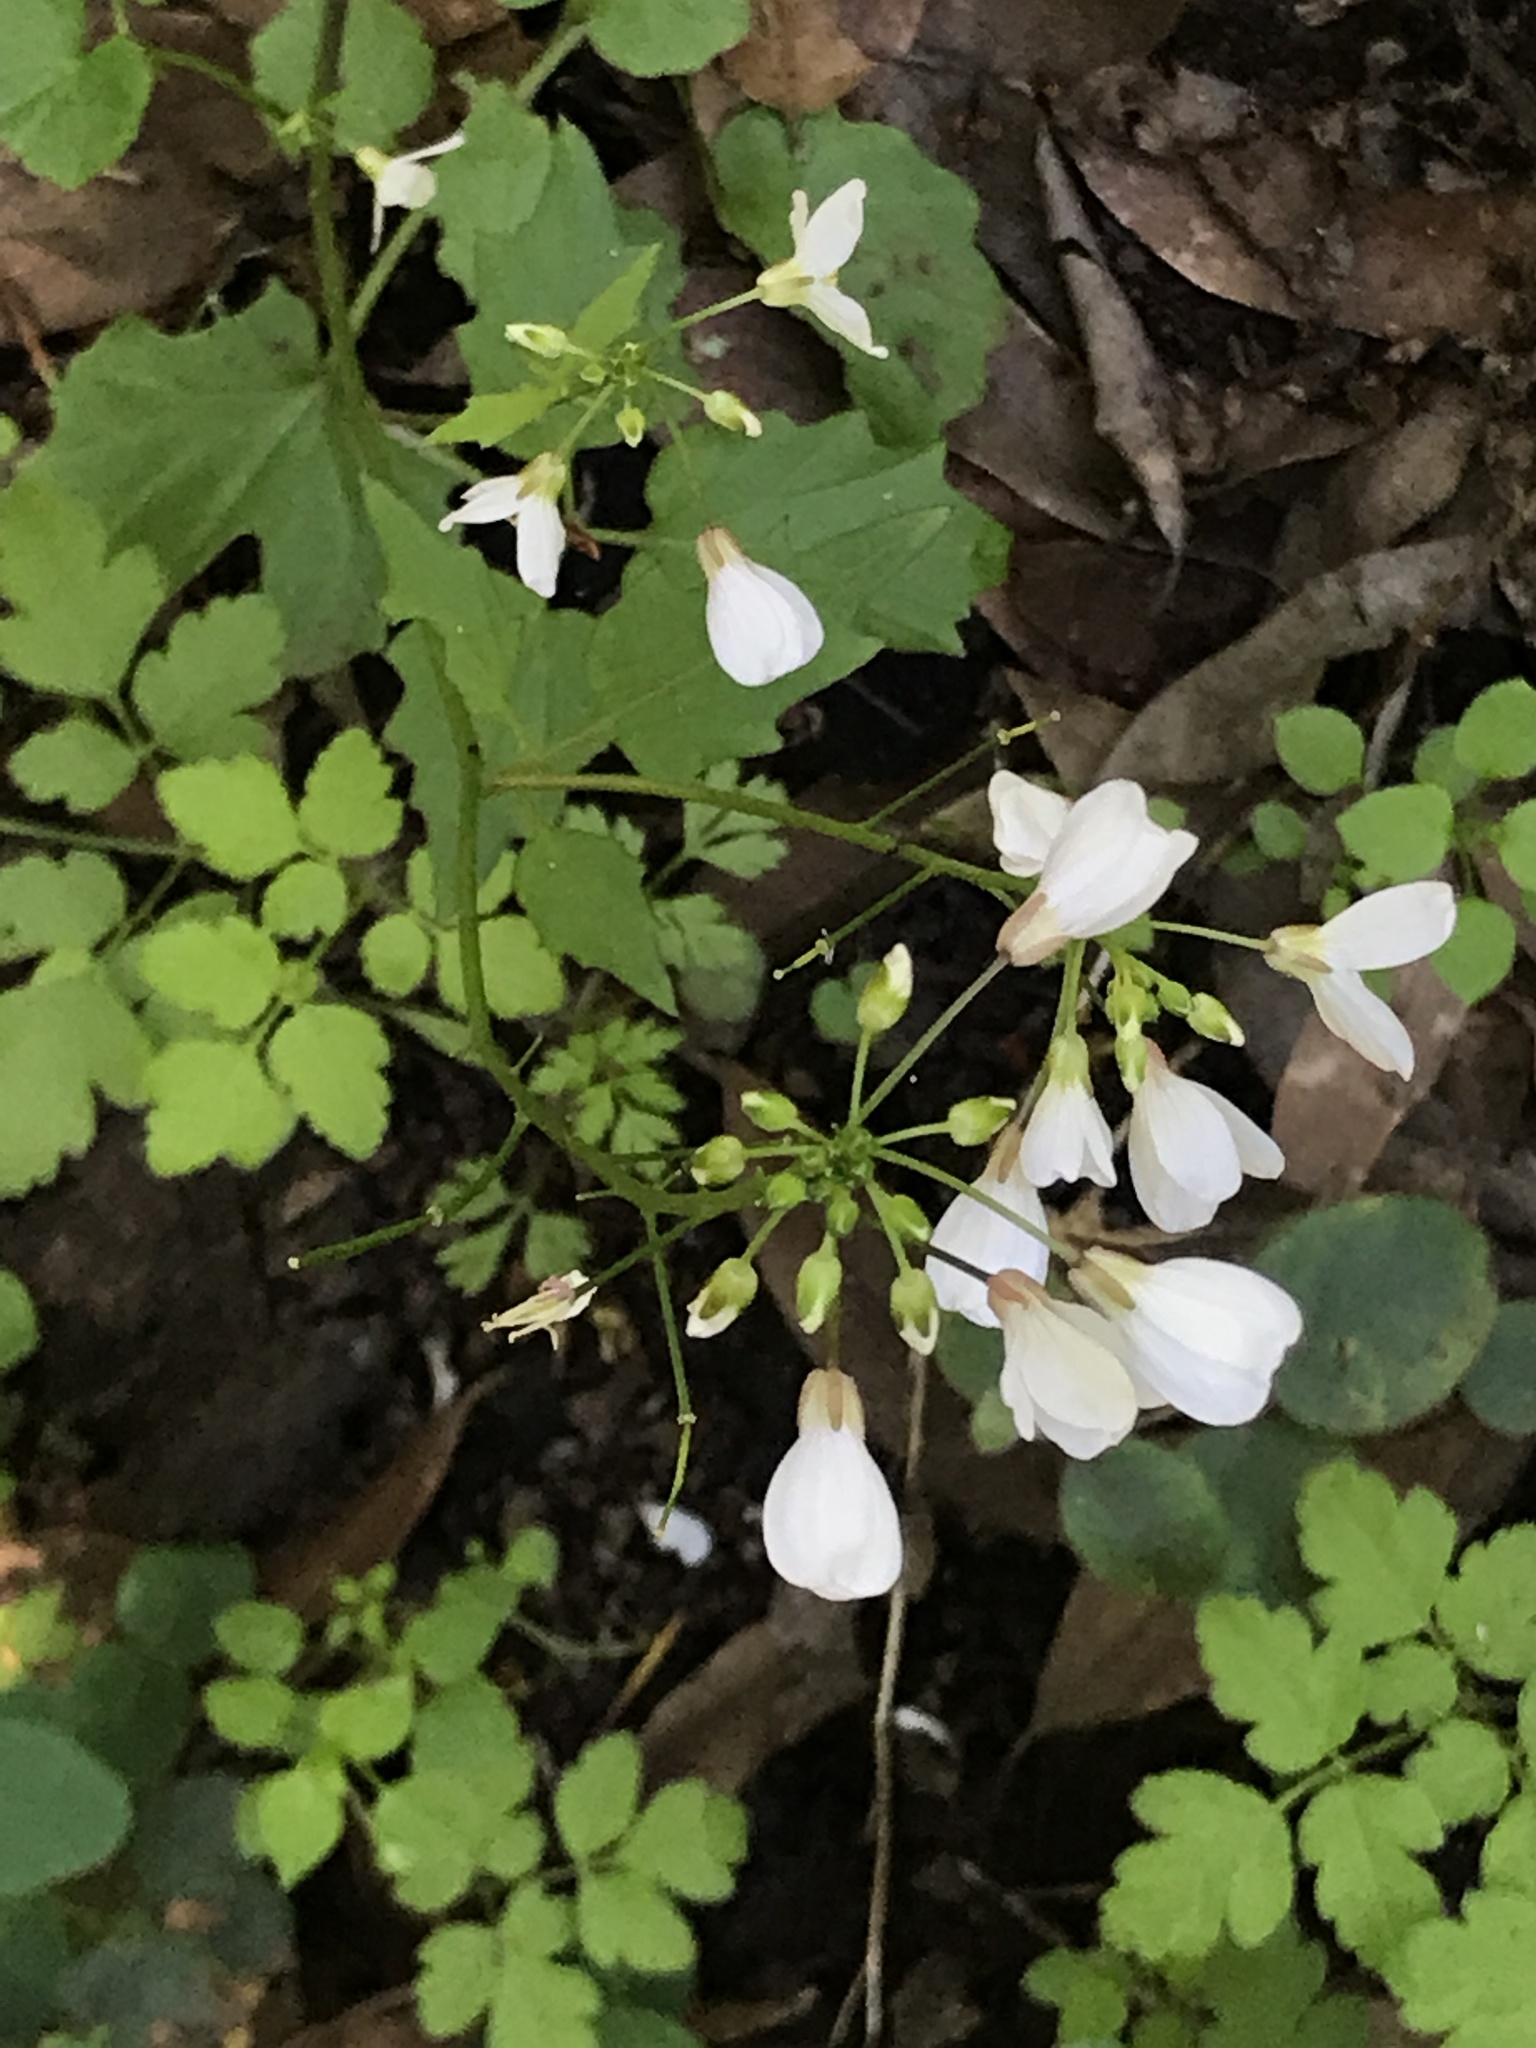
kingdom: Plantae
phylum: Tracheophyta
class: Magnoliopsida
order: Brassicales
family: Brassicaceae
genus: Cardamine
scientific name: Cardamine californica
